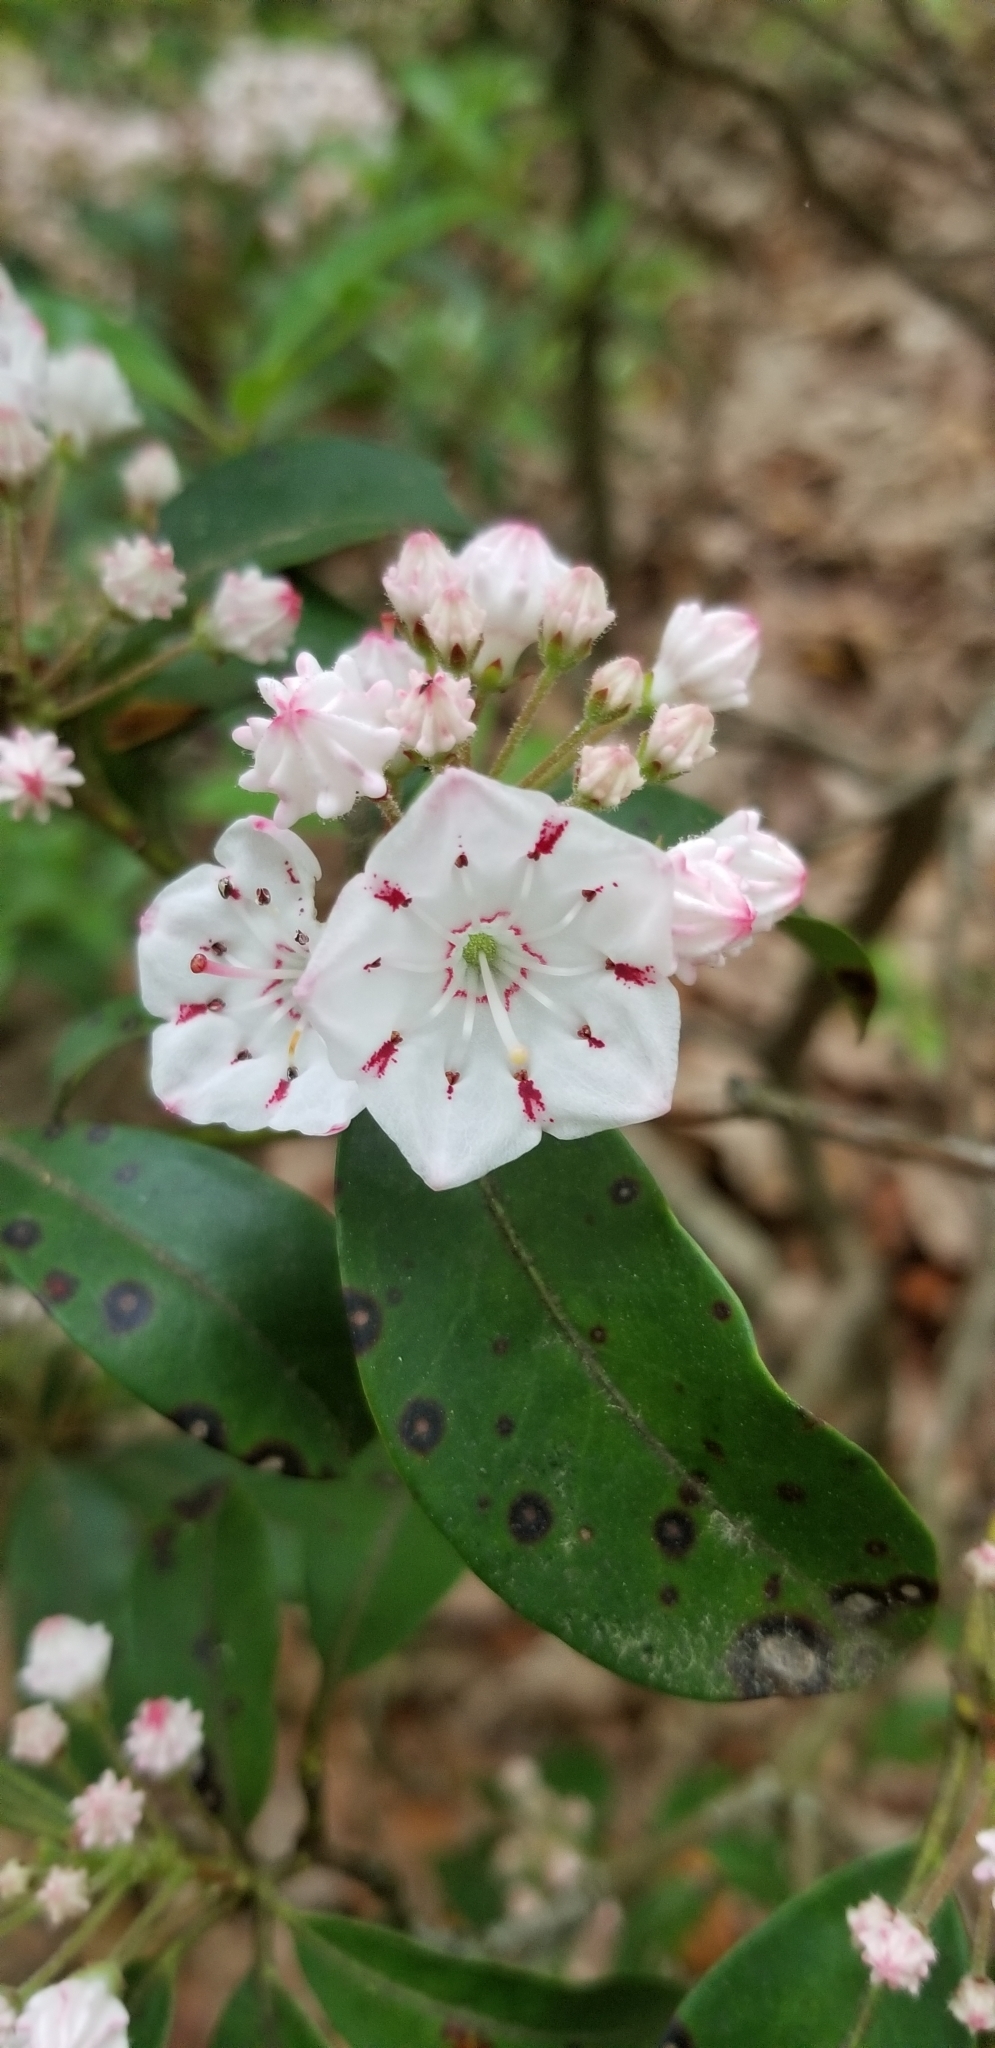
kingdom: Plantae
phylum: Tracheophyta
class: Magnoliopsida
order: Ericales
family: Ericaceae
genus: Kalmia
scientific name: Kalmia latifolia
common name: Mountain-laurel
